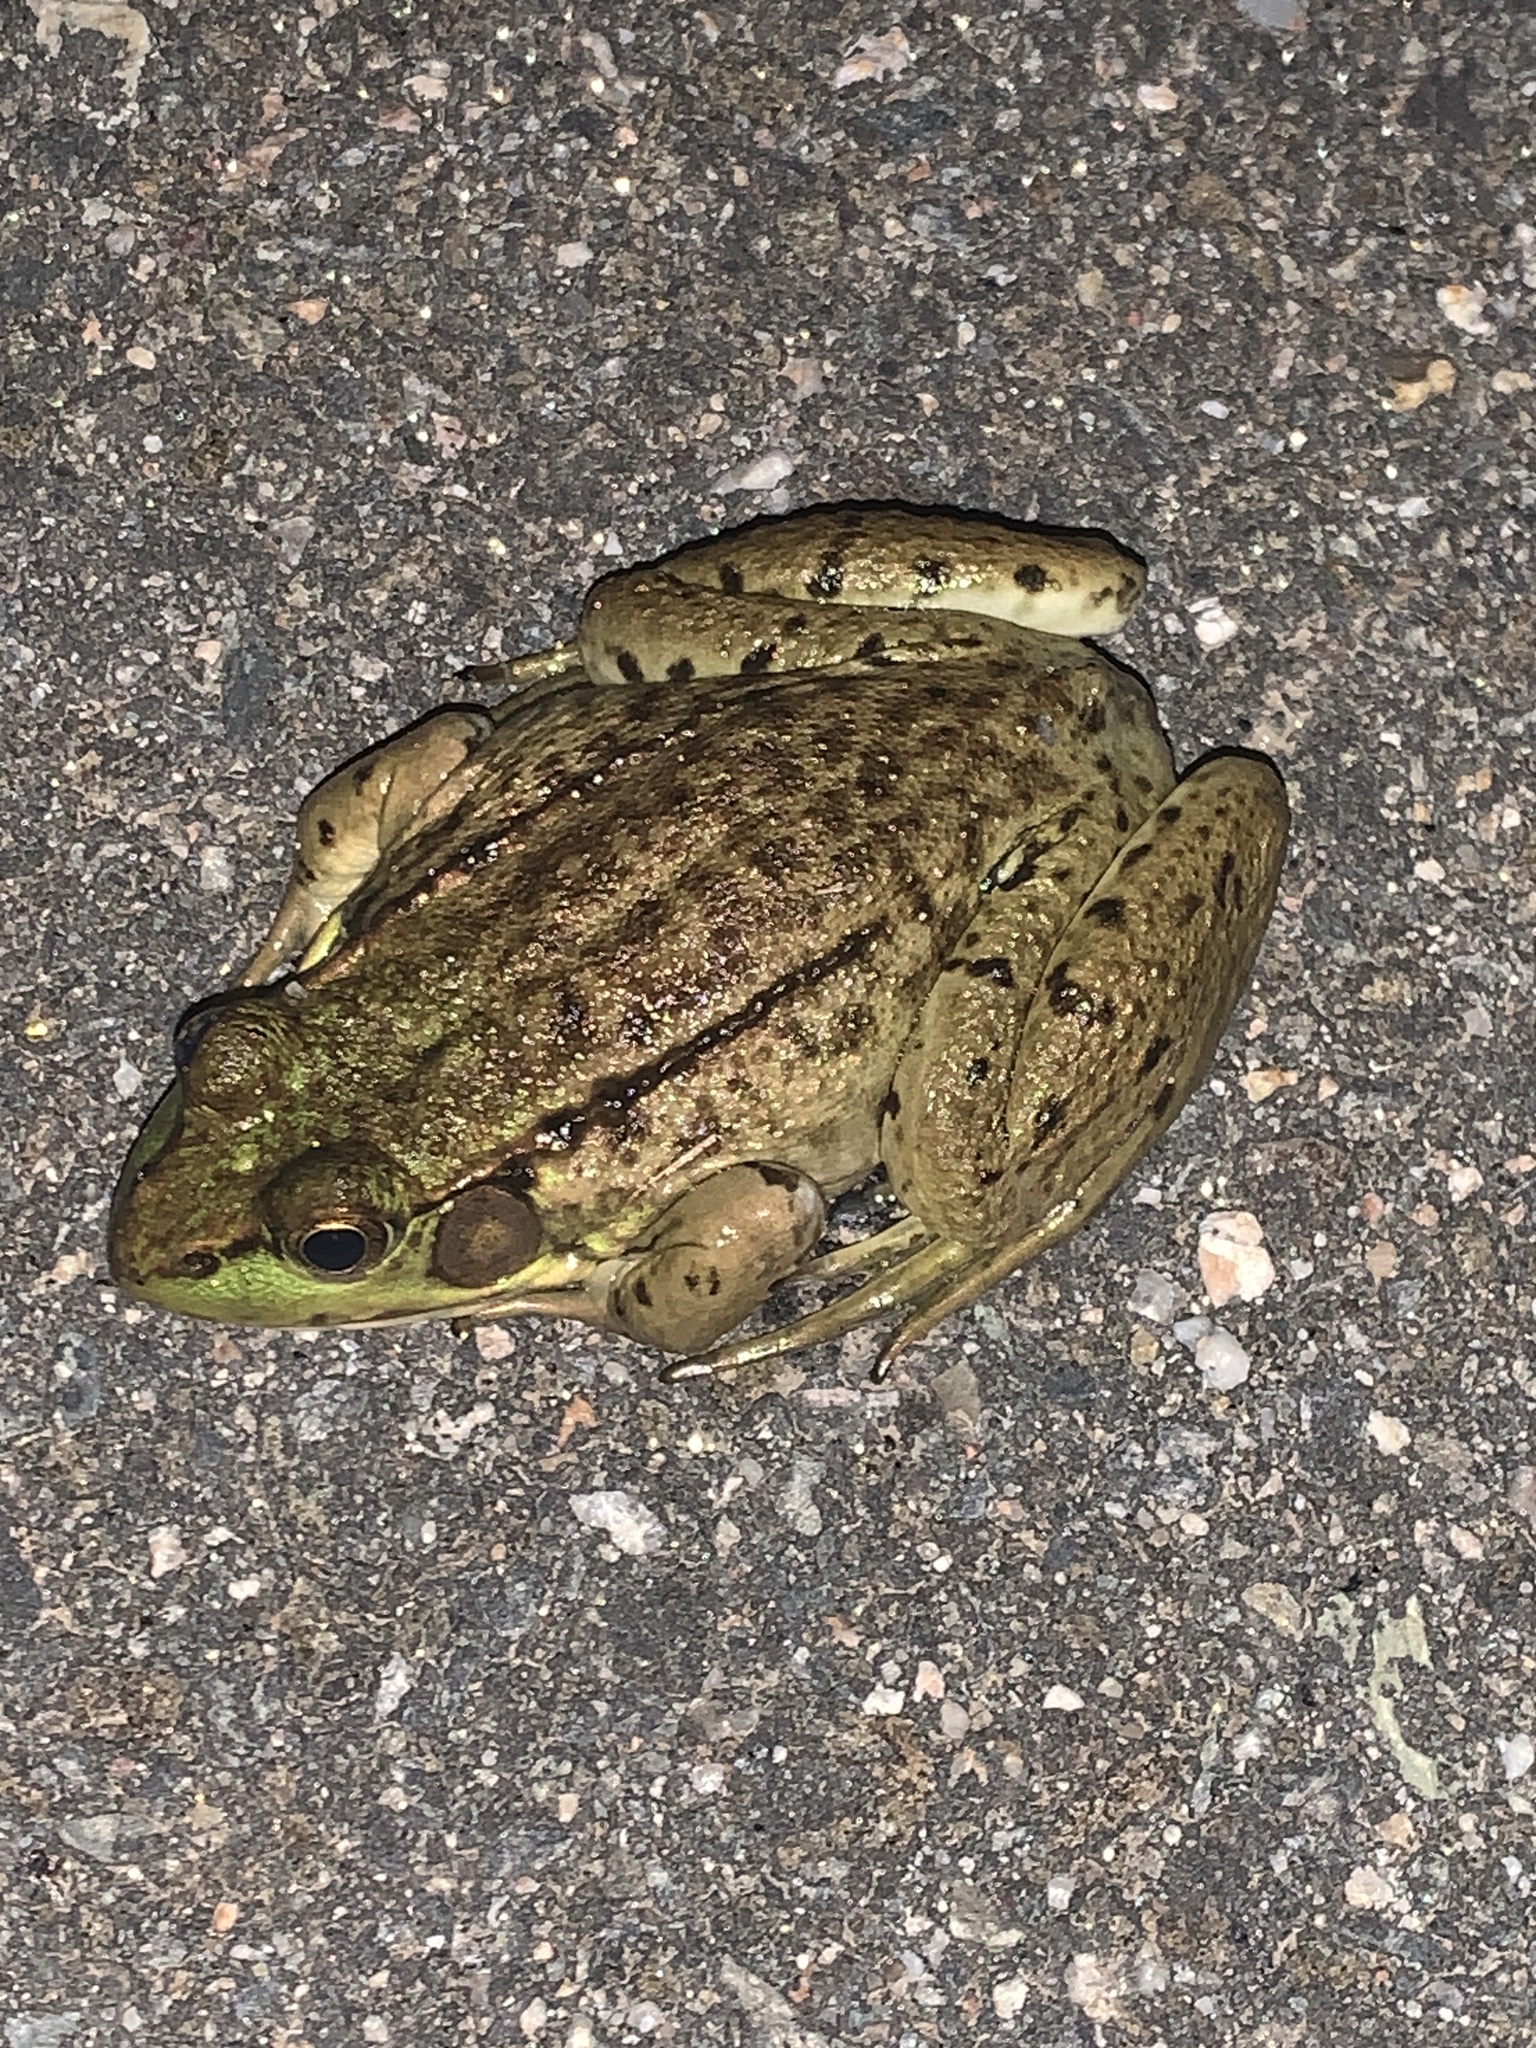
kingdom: Animalia
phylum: Chordata
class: Amphibia
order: Anura
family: Ranidae
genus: Lithobates
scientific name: Lithobates clamitans
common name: Green frog
